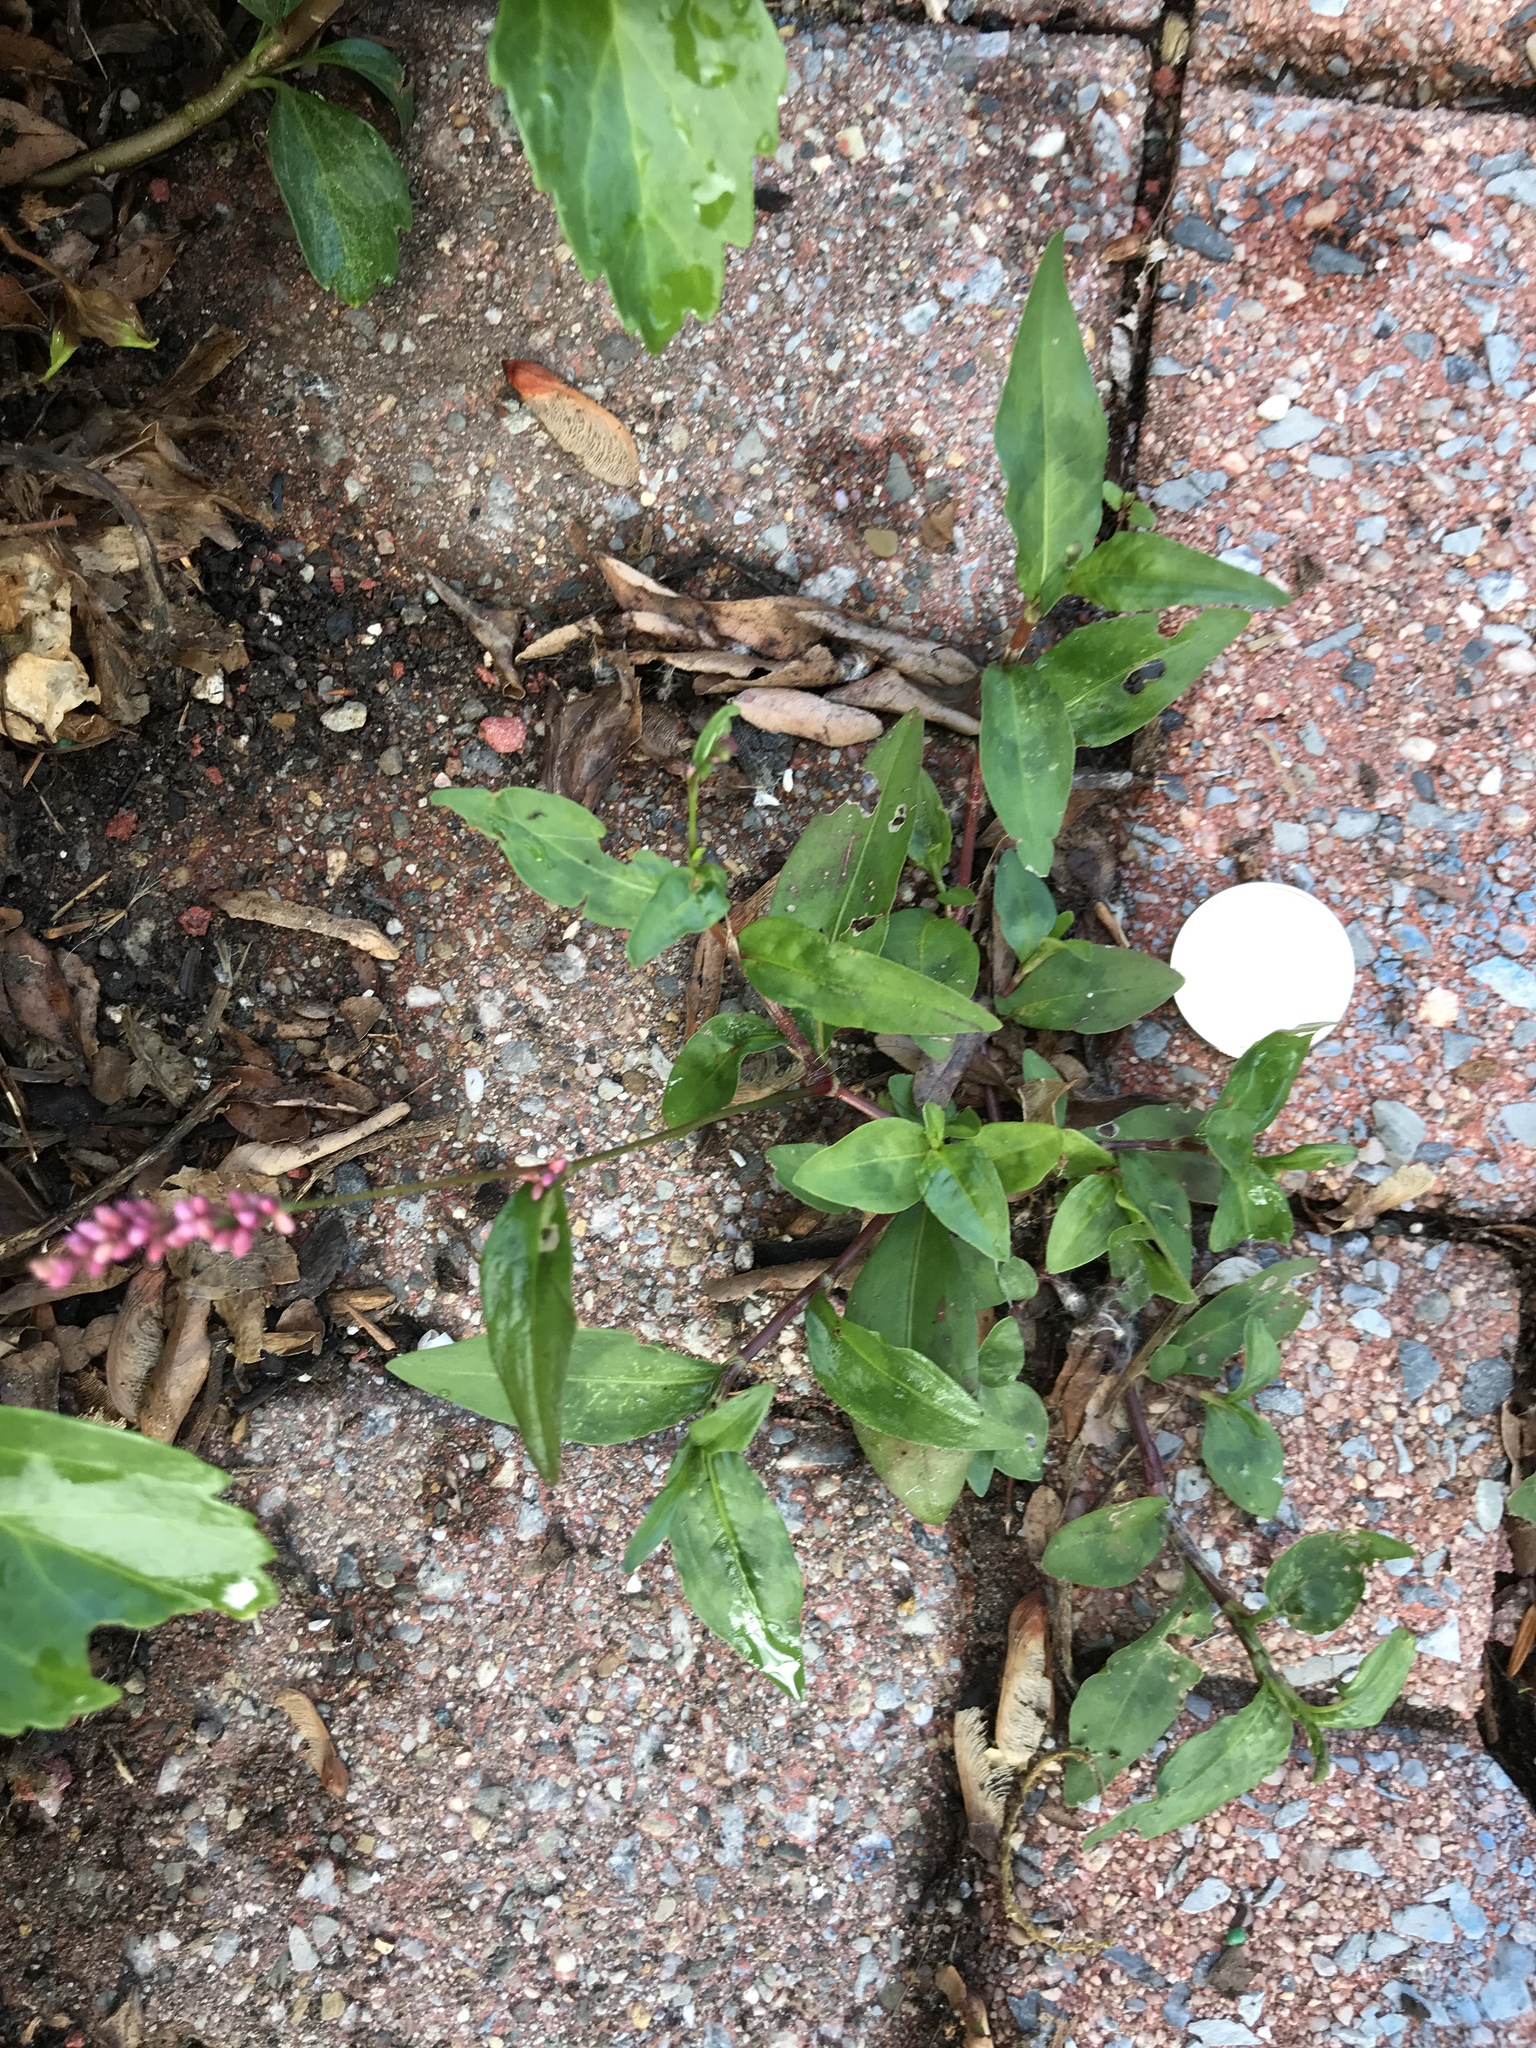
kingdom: Plantae
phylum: Tracheophyta
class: Magnoliopsida
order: Caryophyllales
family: Polygonaceae
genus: Persicaria
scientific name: Persicaria longiseta
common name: Bristly lady's-thumb
